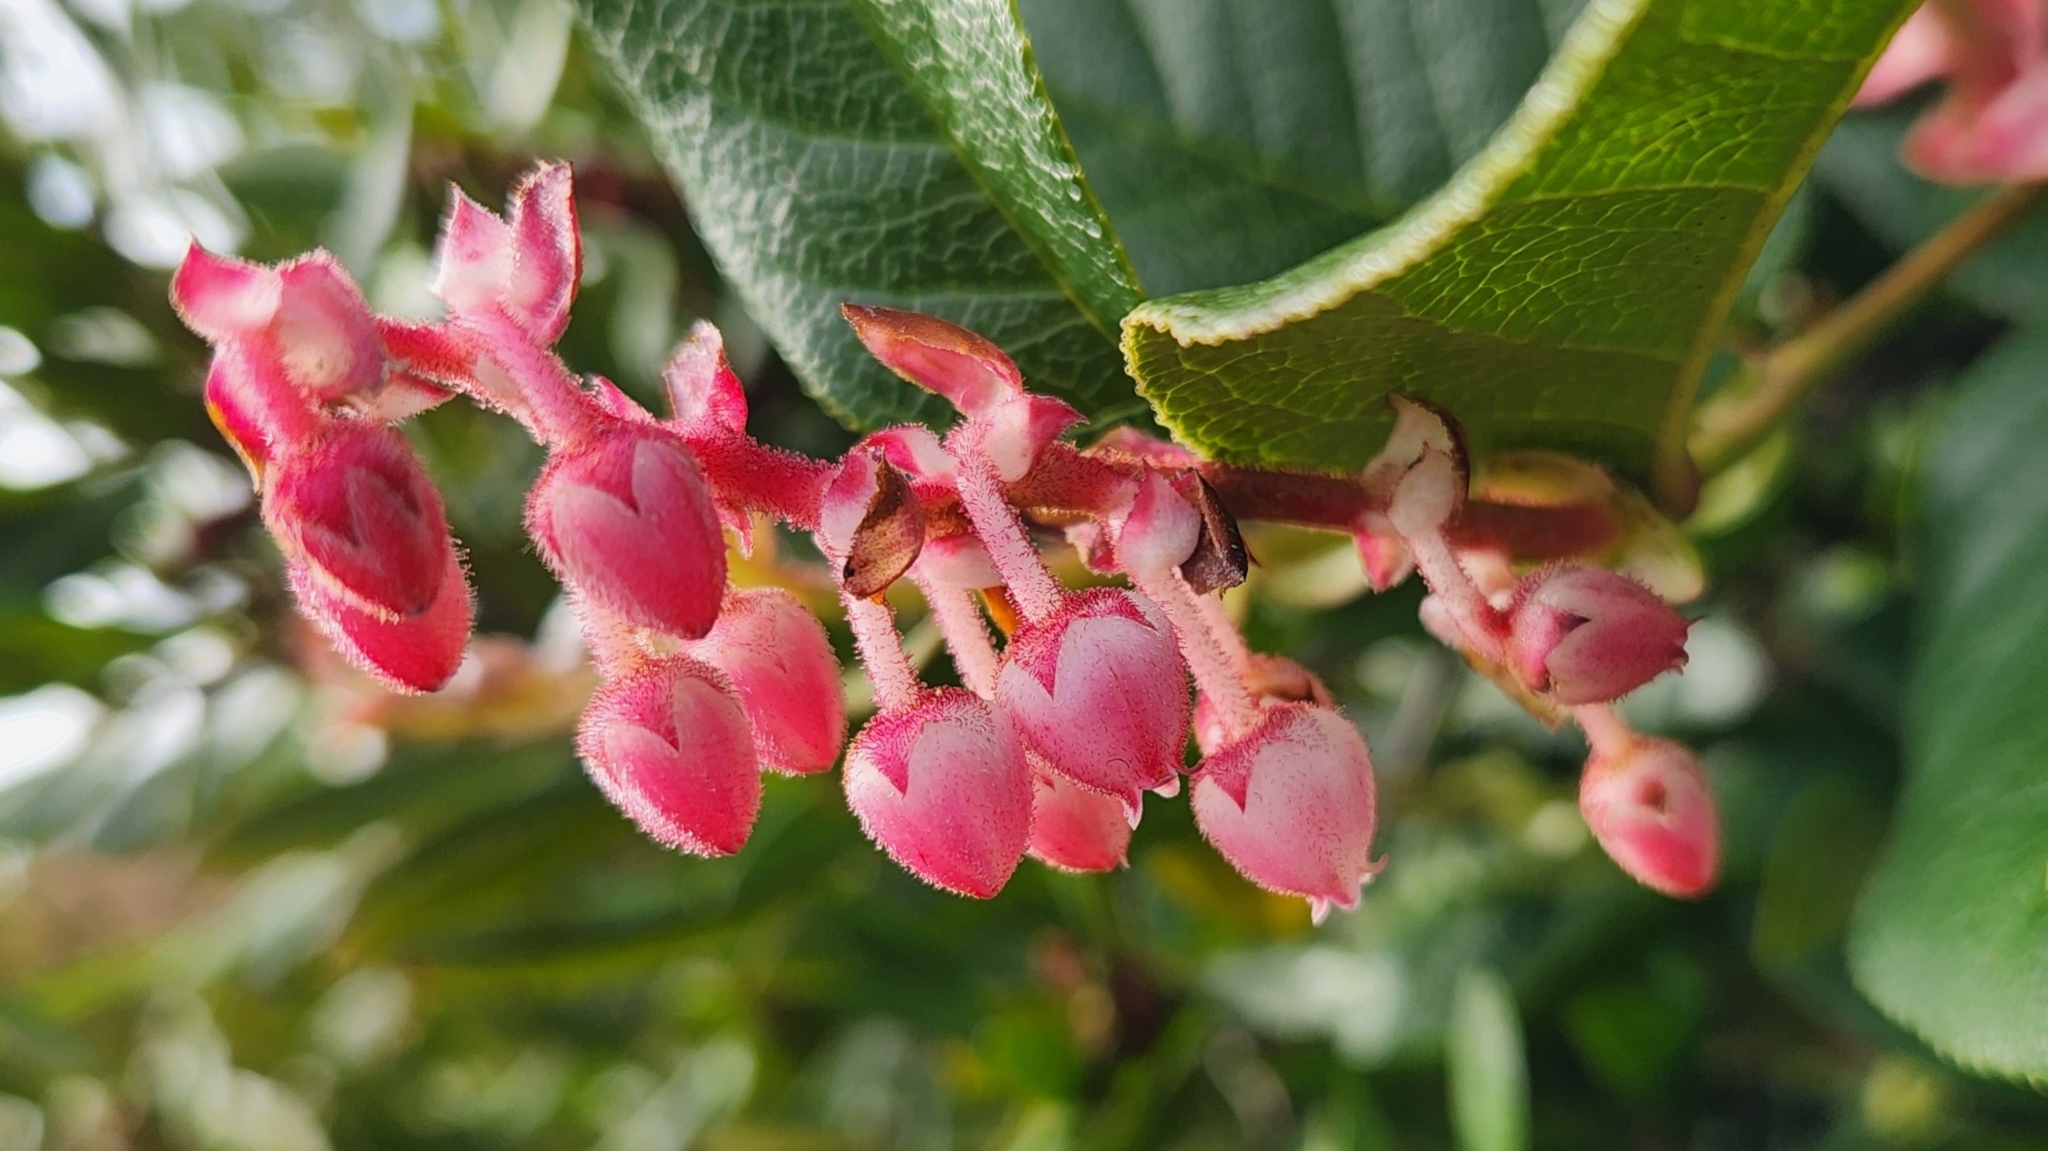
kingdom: Plantae
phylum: Tracheophyta
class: Magnoliopsida
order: Ericales
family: Ericaceae
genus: Gaultheria
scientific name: Gaultheria shallon
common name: Shallon
